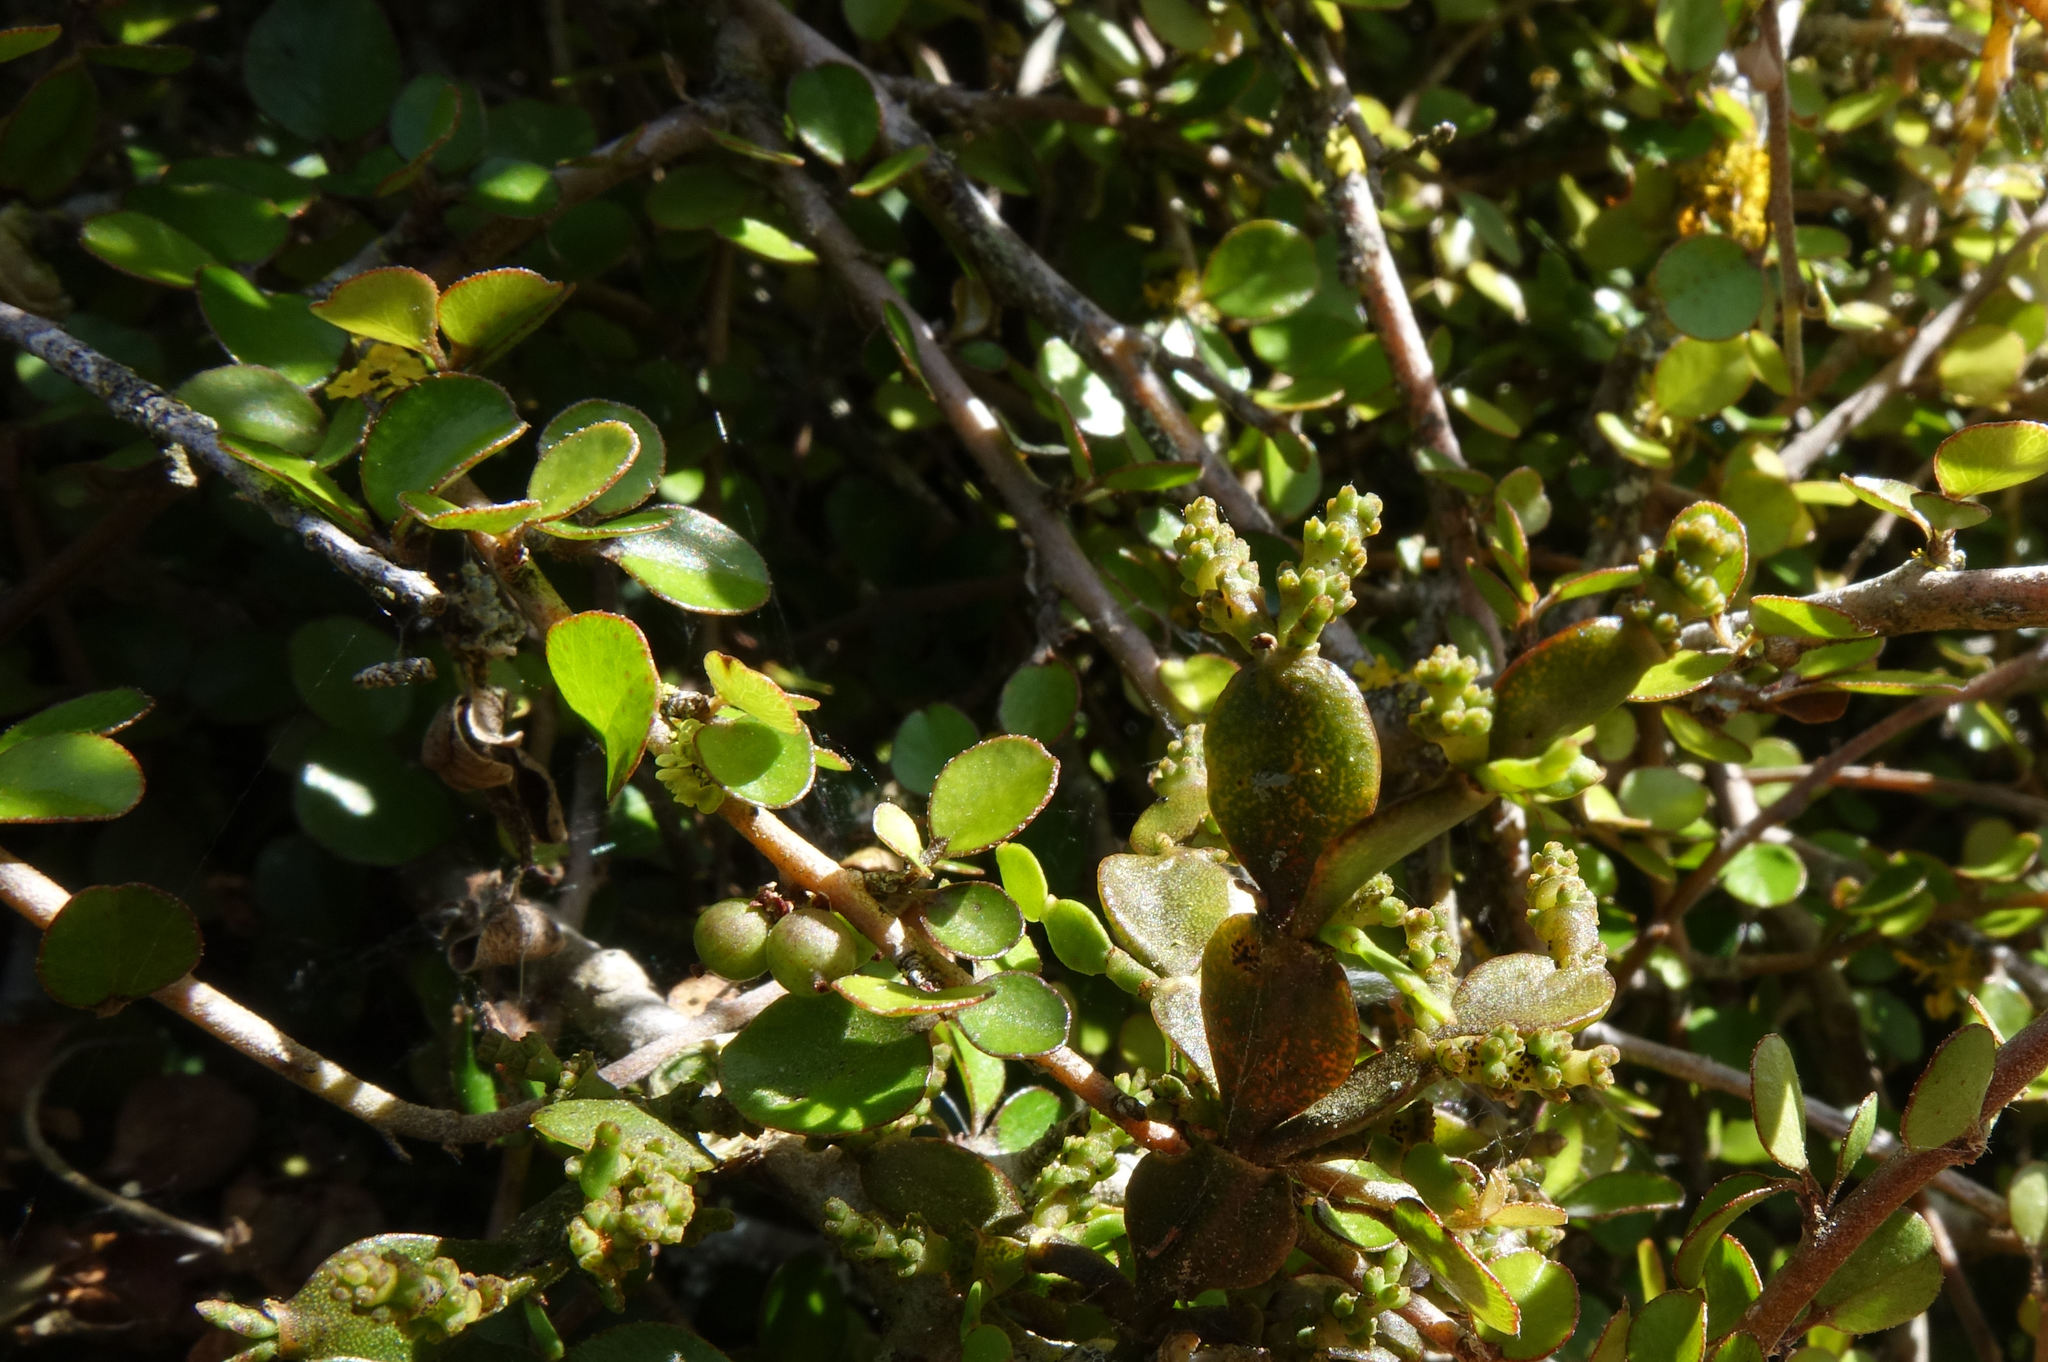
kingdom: Plantae
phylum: Tracheophyta
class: Magnoliopsida
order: Santalales
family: Viscaceae
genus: Korthalsella
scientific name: Korthalsella lindsayi
